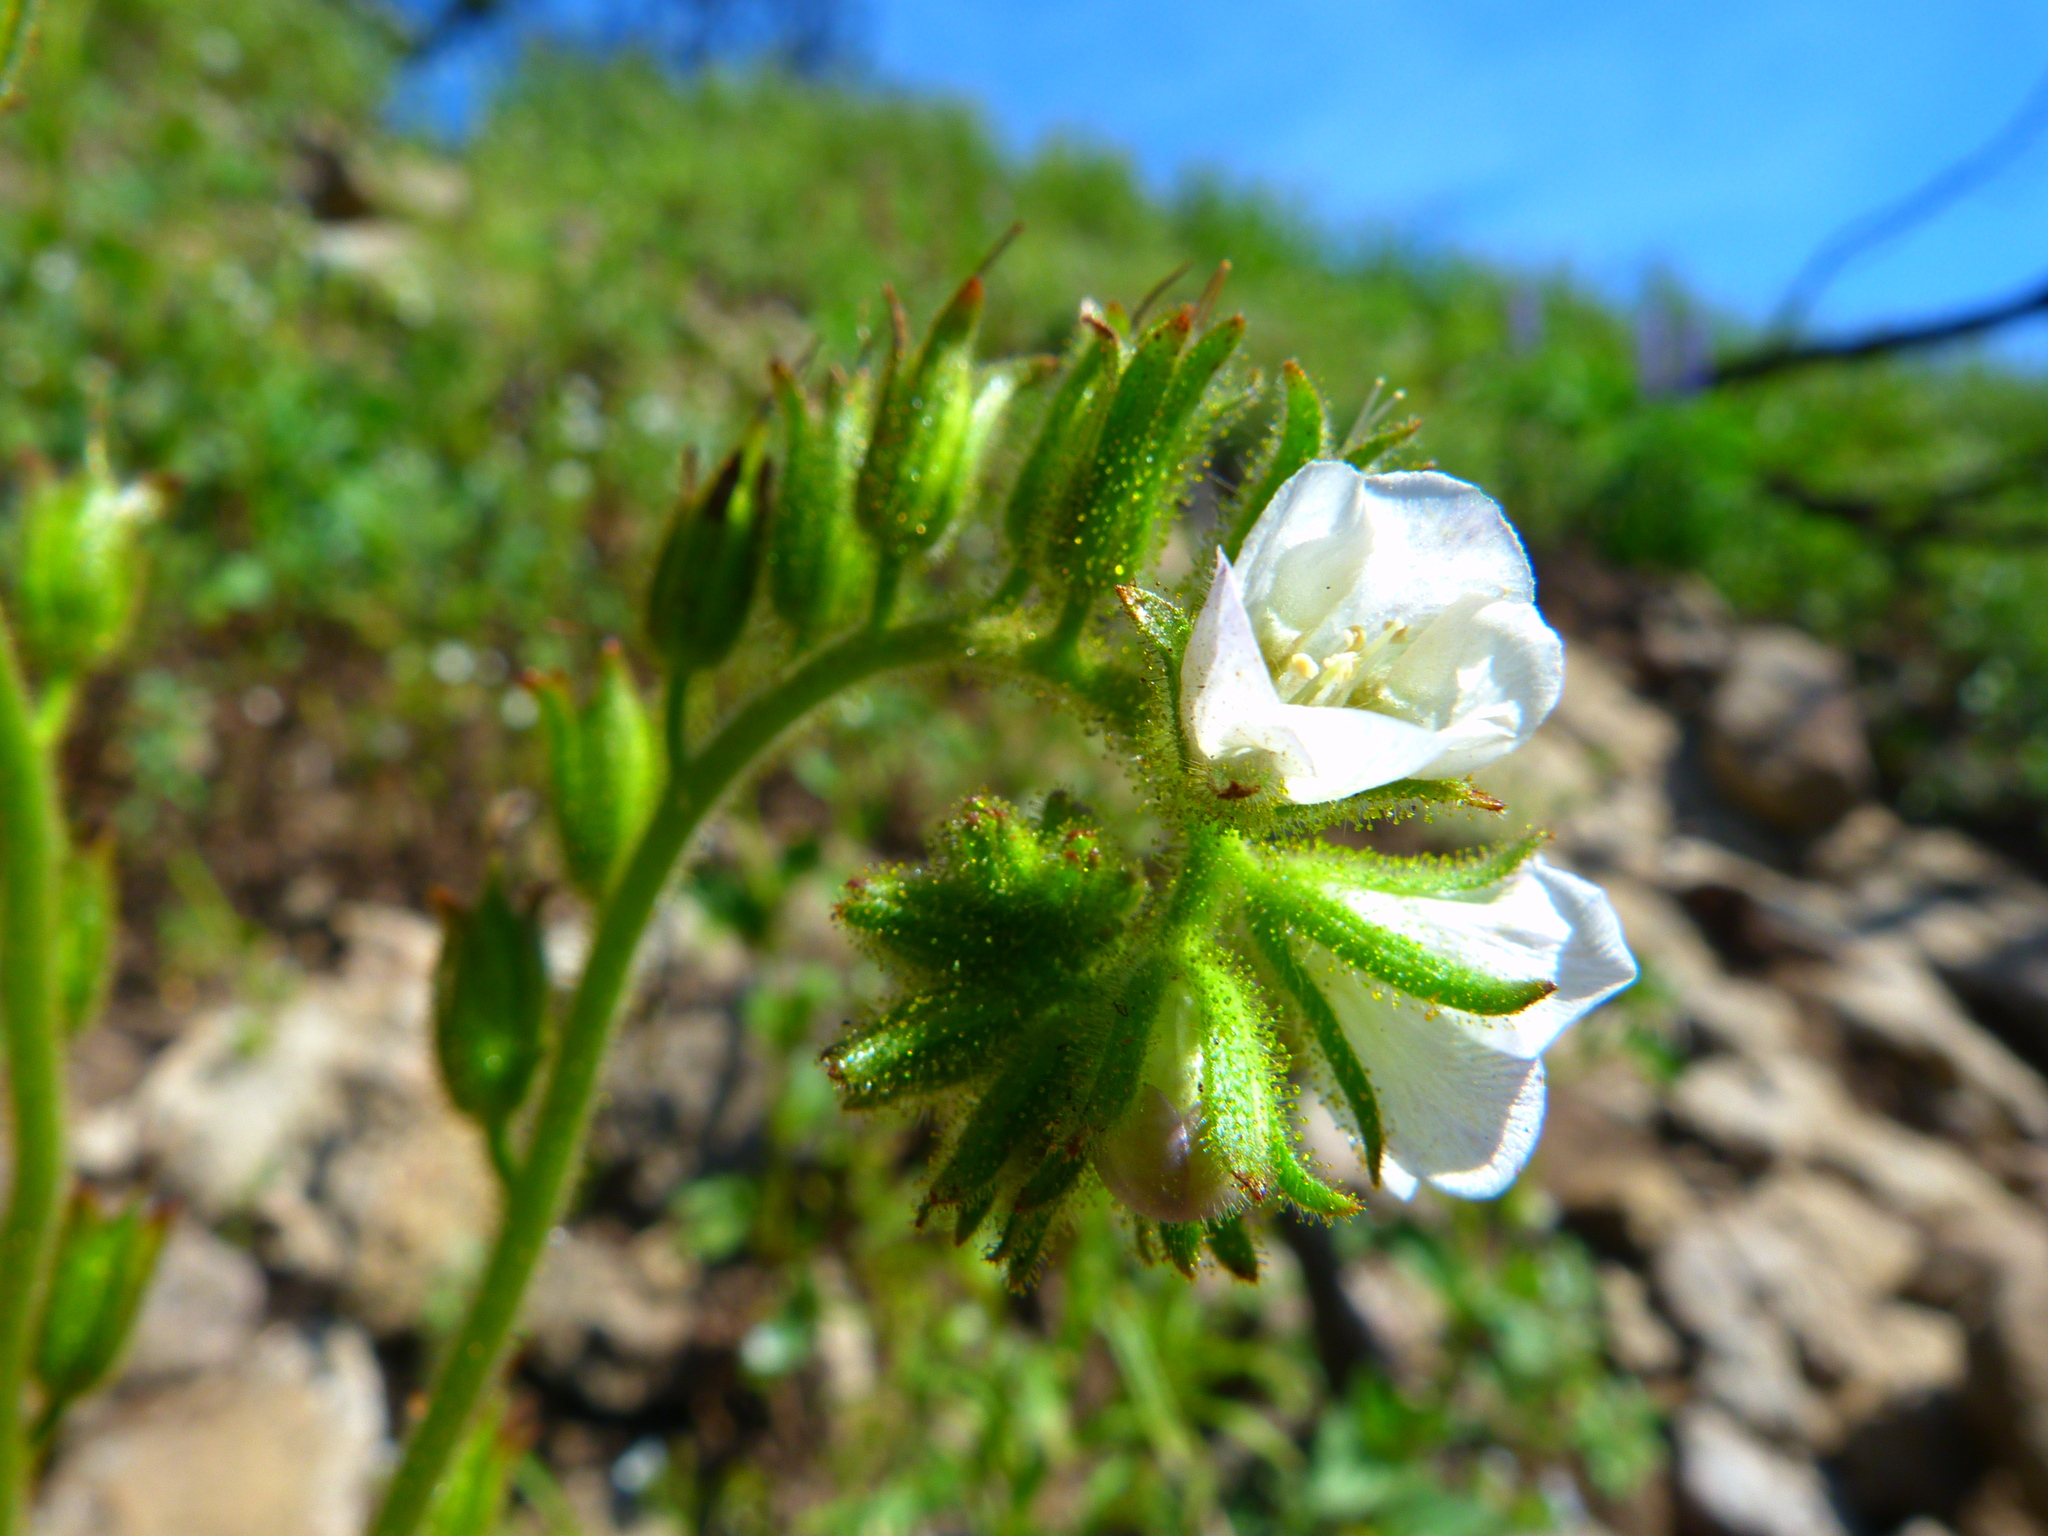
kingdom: Plantae
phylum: Tracheophyta
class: Magnoliopsida
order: Boraginales
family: Hydrophyllaceae
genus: Phacelia
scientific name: Phacelia viscida
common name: Sticky phacelia
